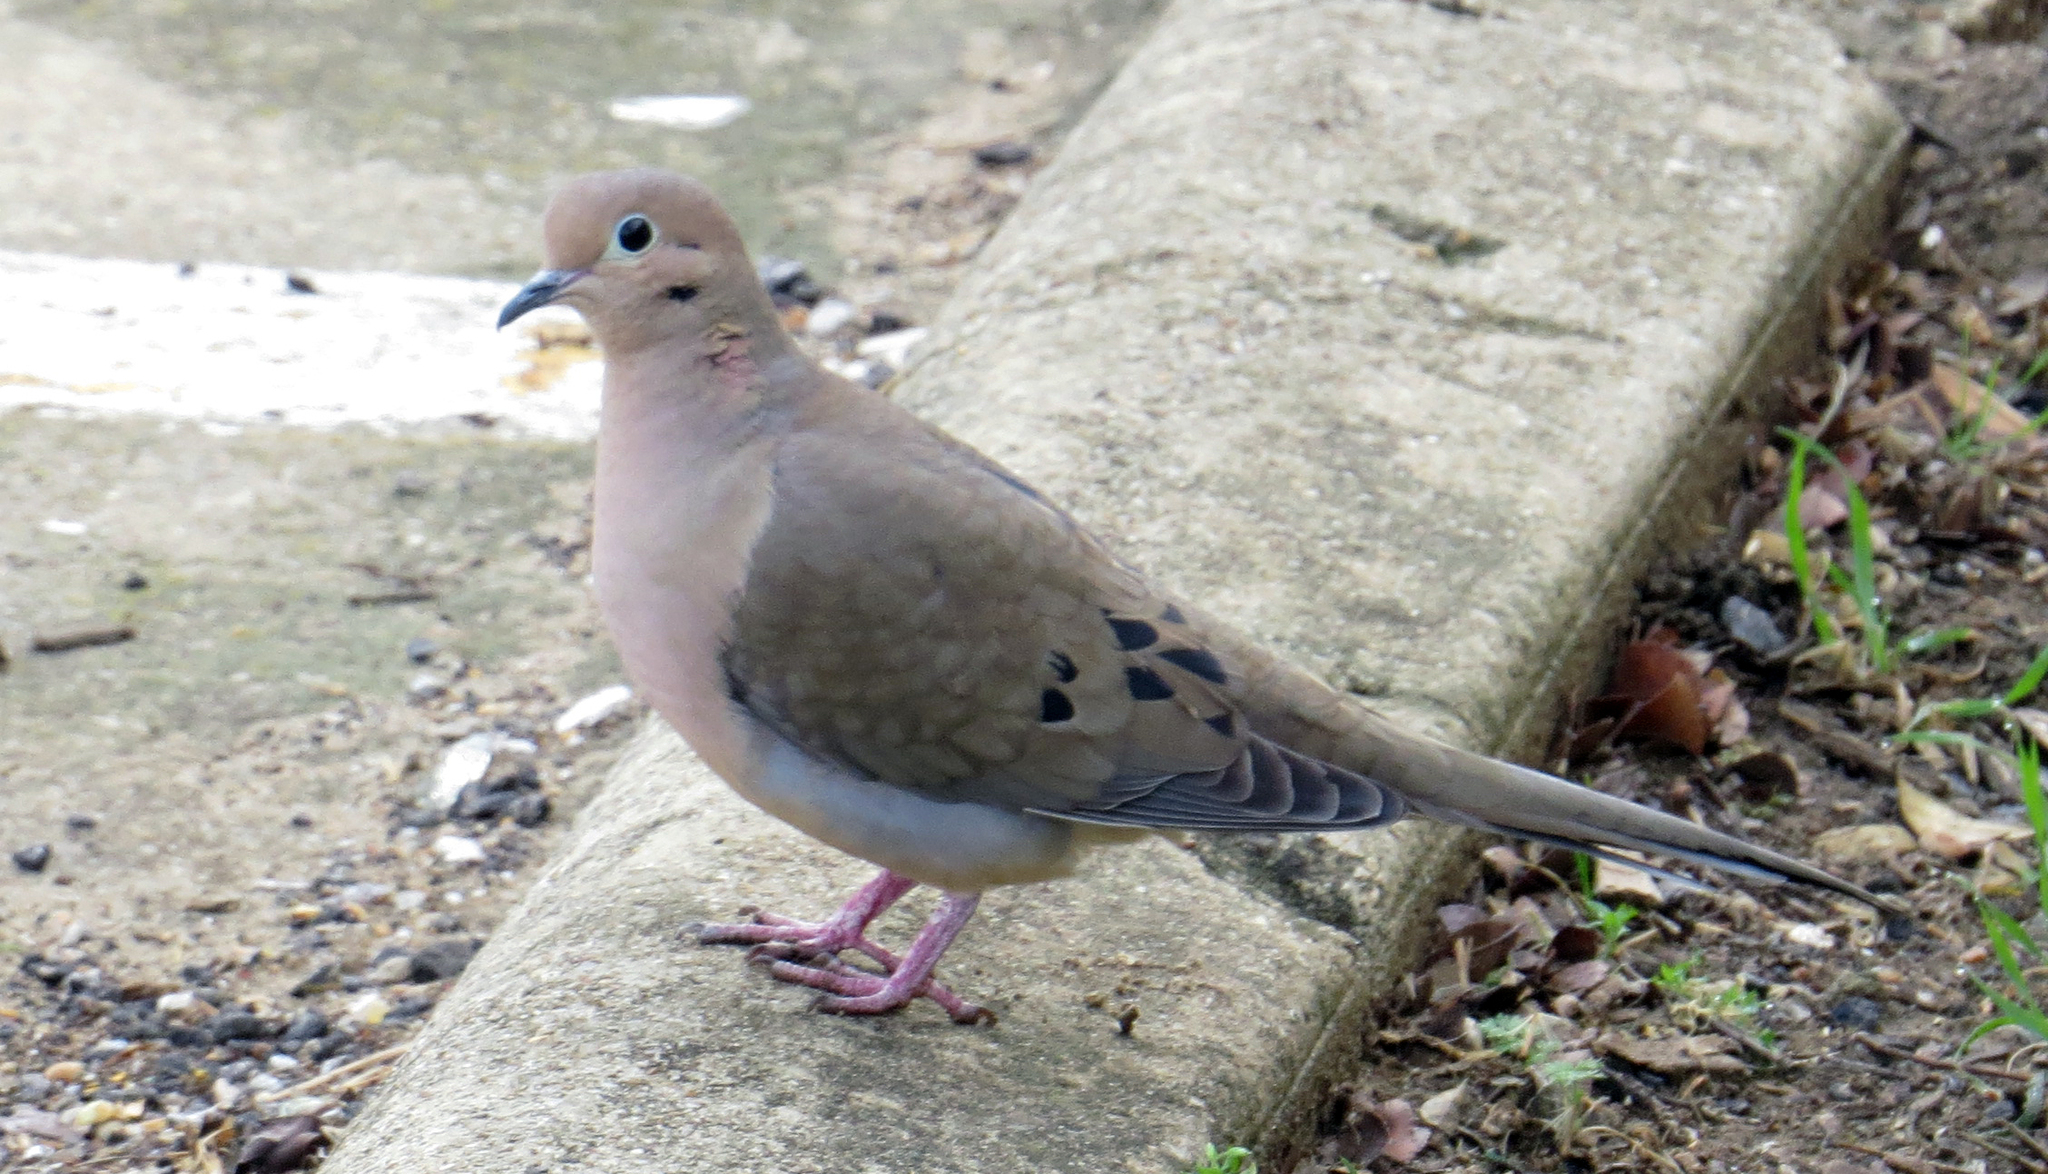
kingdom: Animalia
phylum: Chordata
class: Aves
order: Columbiformes
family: Columbidae
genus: Zenaida
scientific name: Zenaida macroura
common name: Mourning dove
